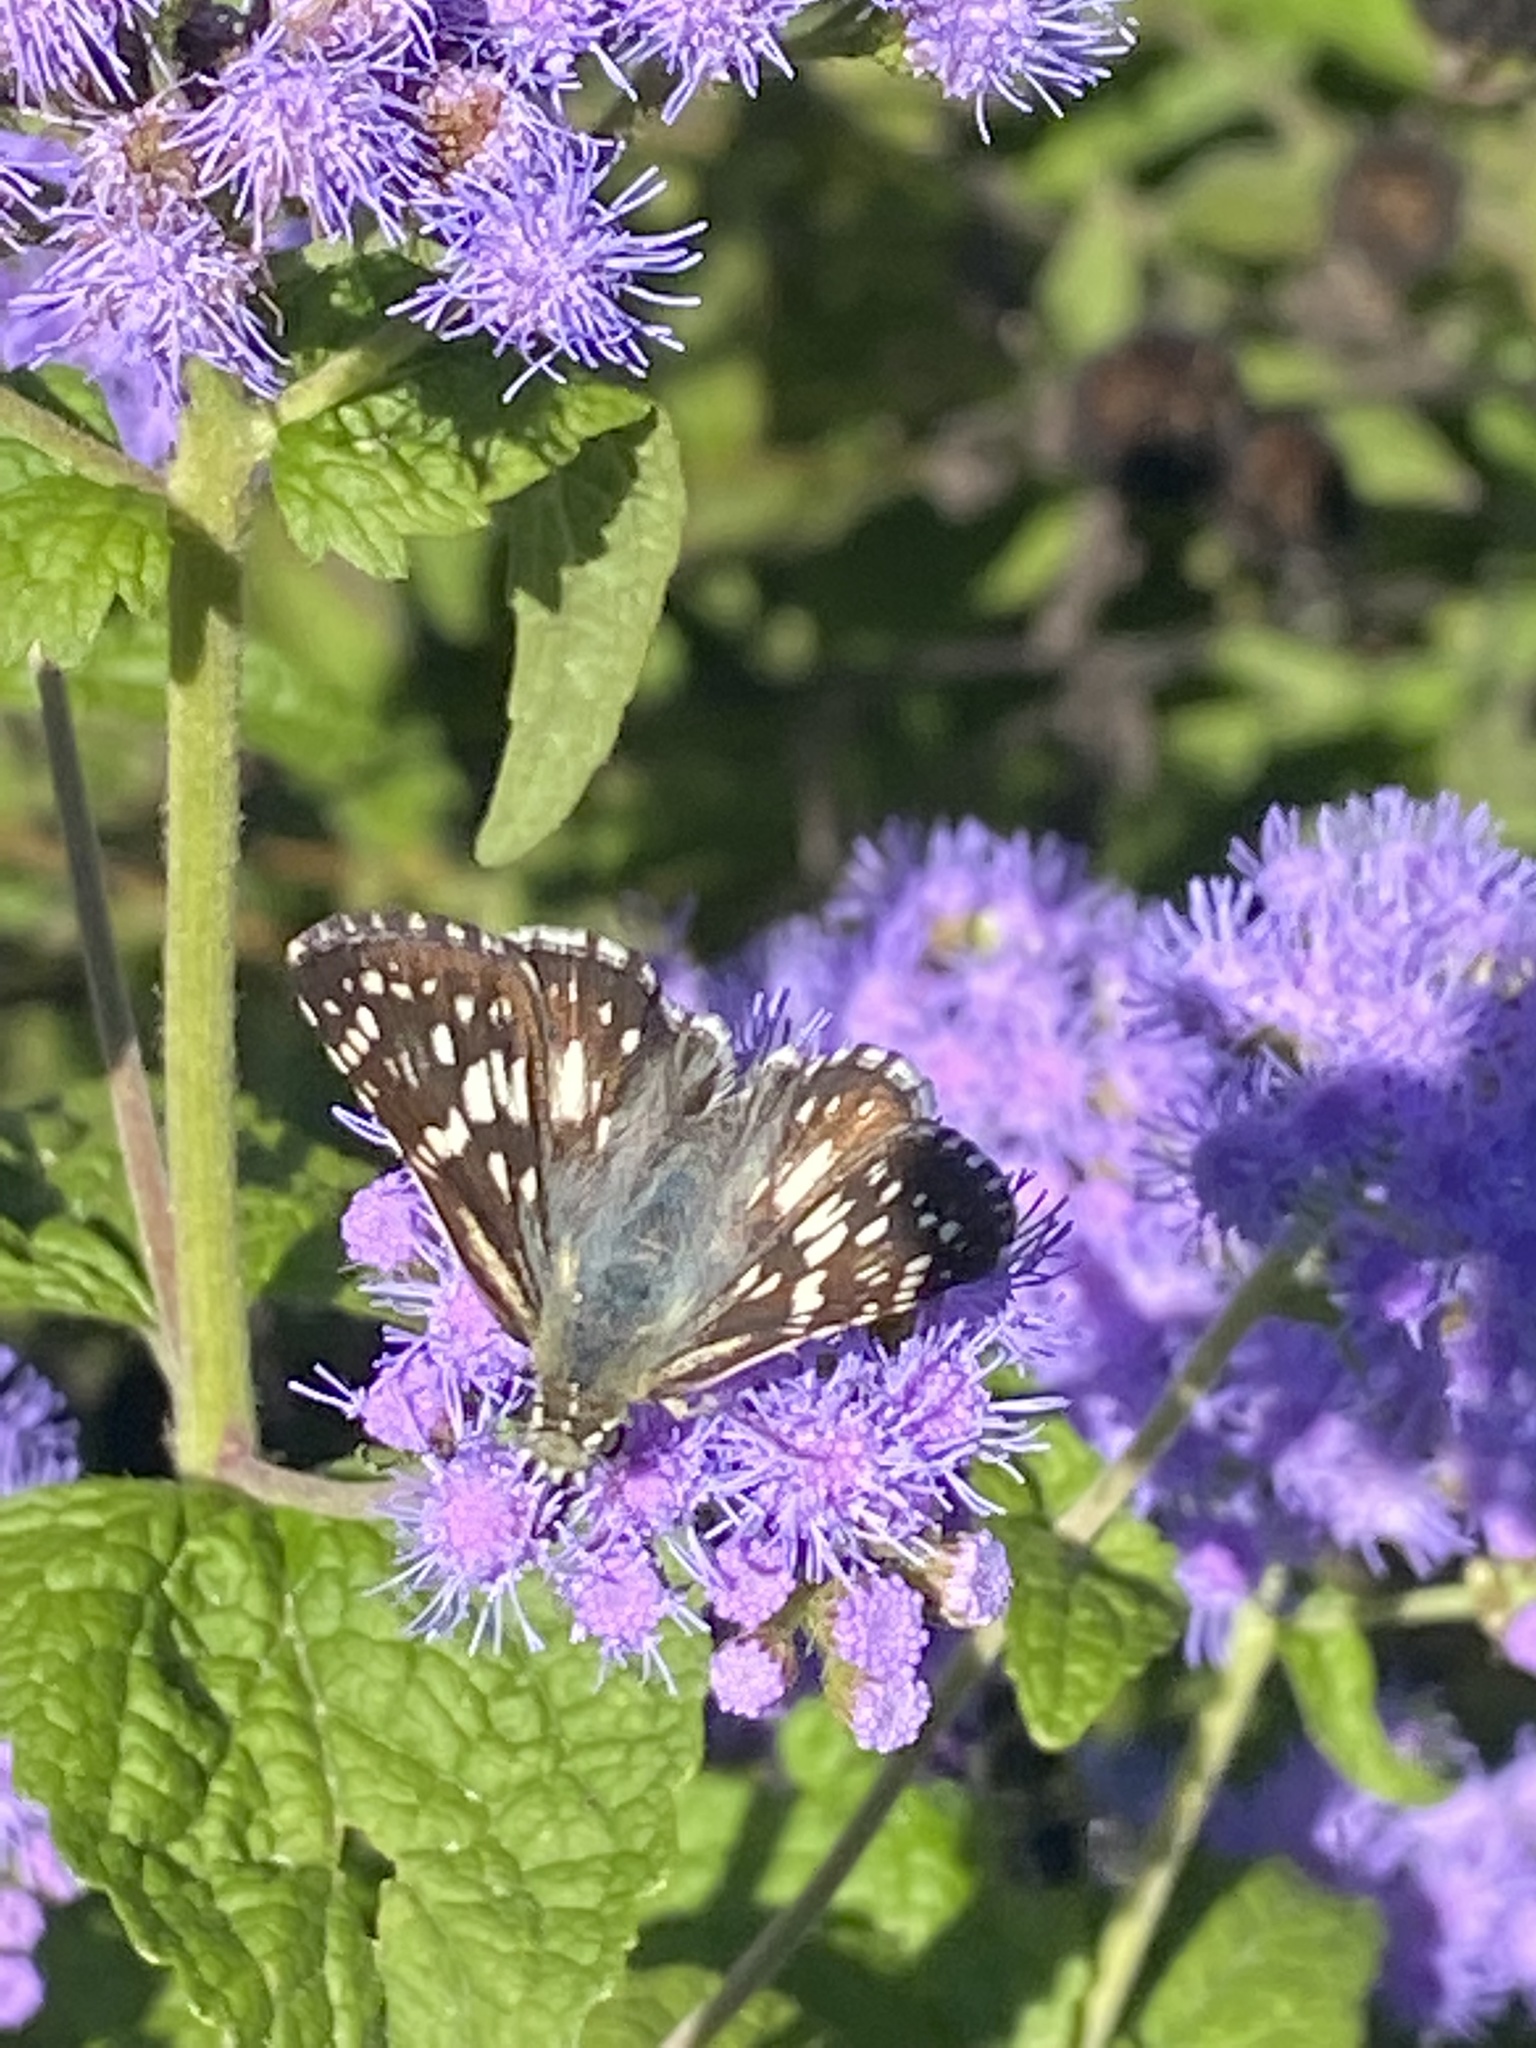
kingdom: Animalia
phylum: Arthropoda
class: Insecta
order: Lepidoptera
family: Hesperiidae
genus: Burnsius
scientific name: Burnsius communis
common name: Common checkered-skipper
